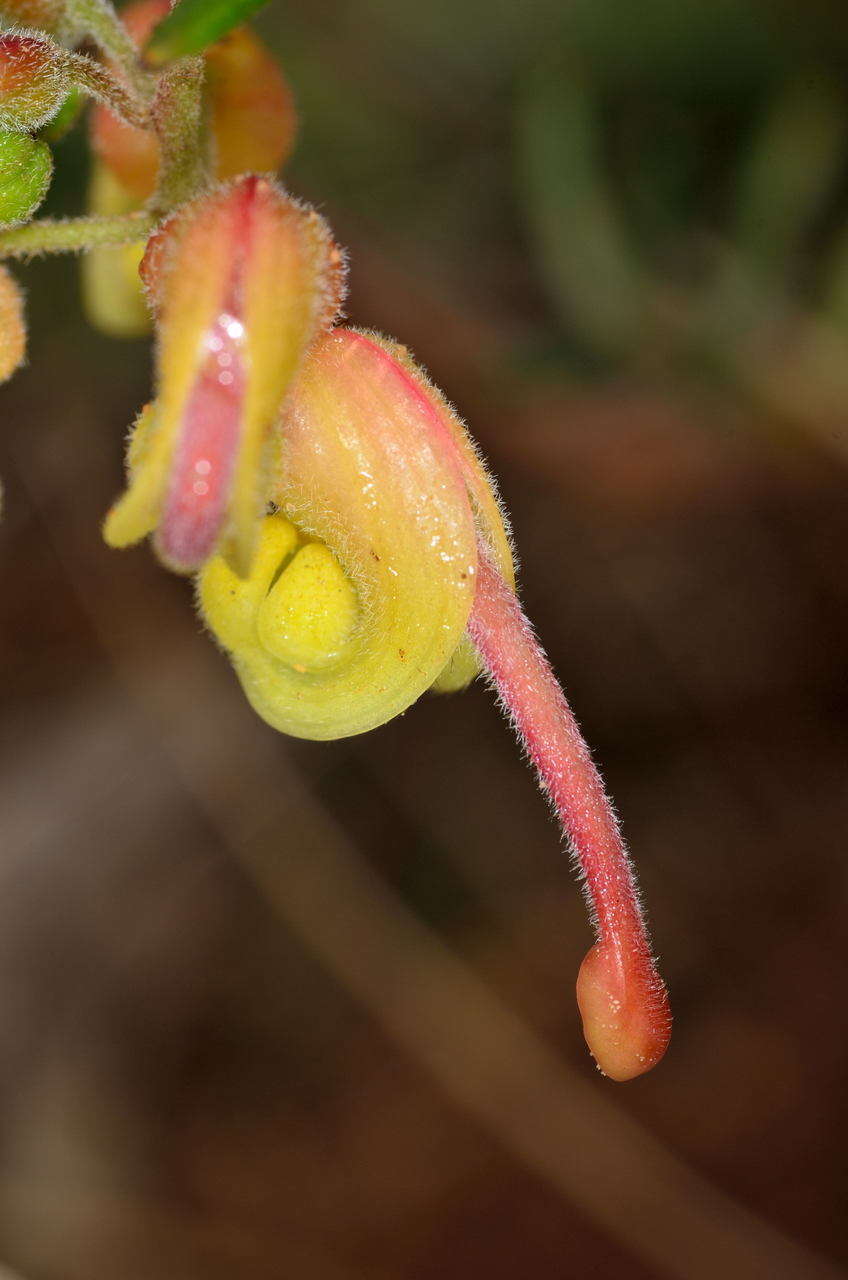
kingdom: Plantae
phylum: Tracheophyta
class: Magnoliopsida
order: Proteales
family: Proteaceae
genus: Grevillea
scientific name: Grevillea rosmarinifolia
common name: Rosemary grevillea
